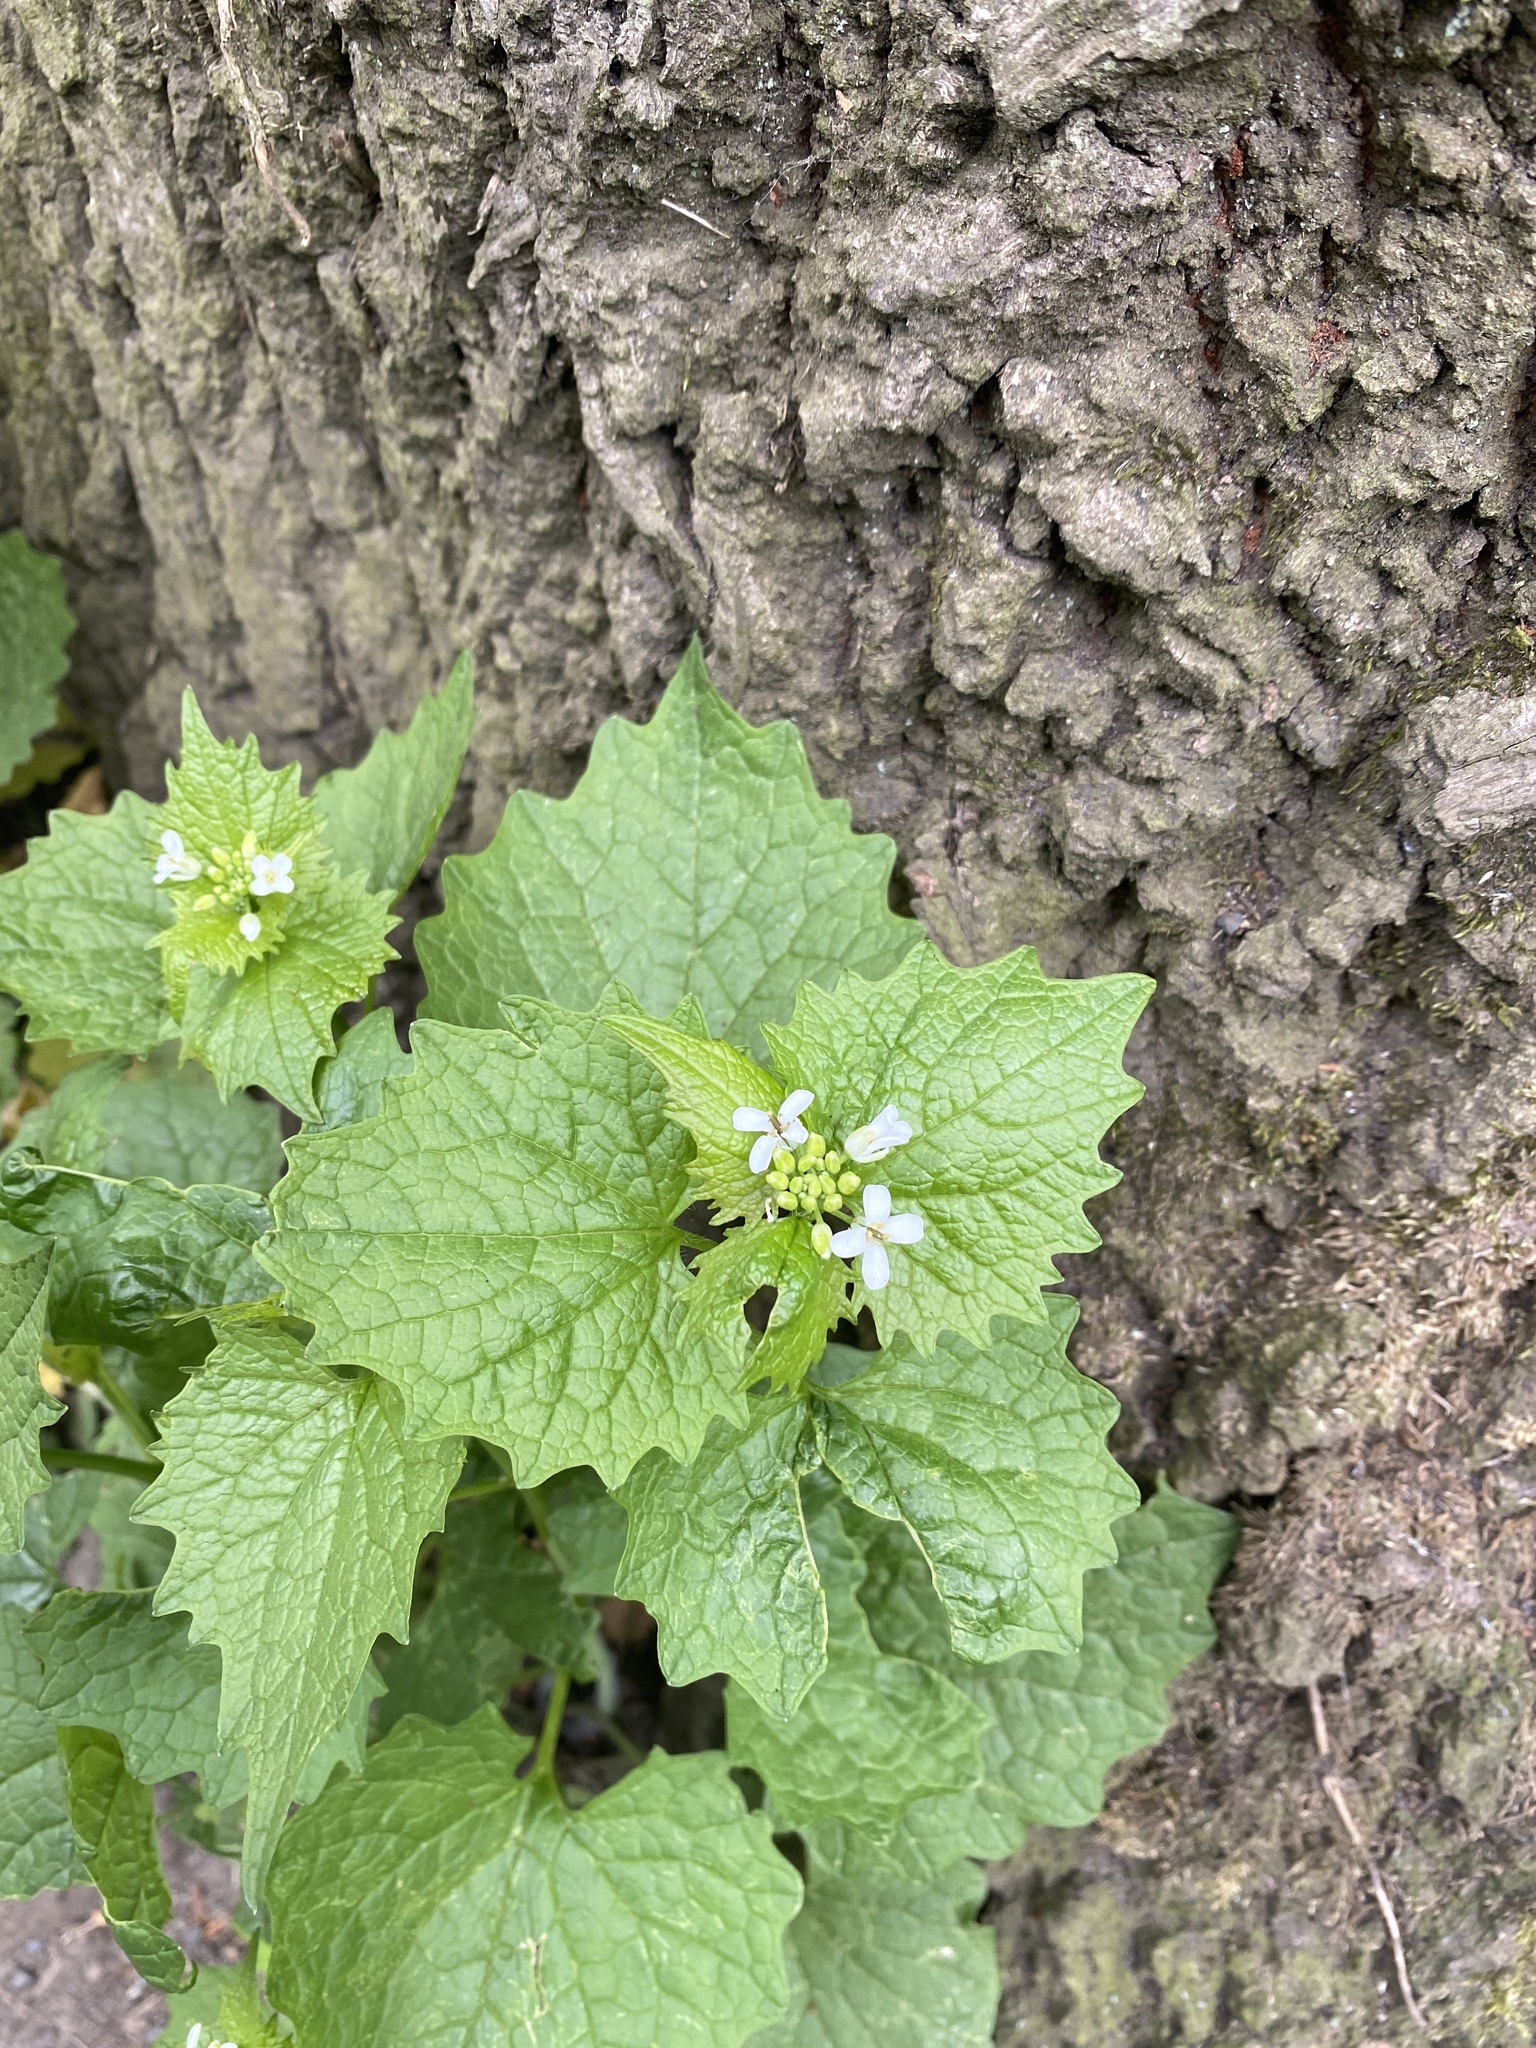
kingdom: Plantae
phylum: Tracheophyta
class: Magnoliopsida
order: Brassicales
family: Brassicaceae
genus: Alliaria
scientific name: Alliaria petiolata
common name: Garlic mustard
